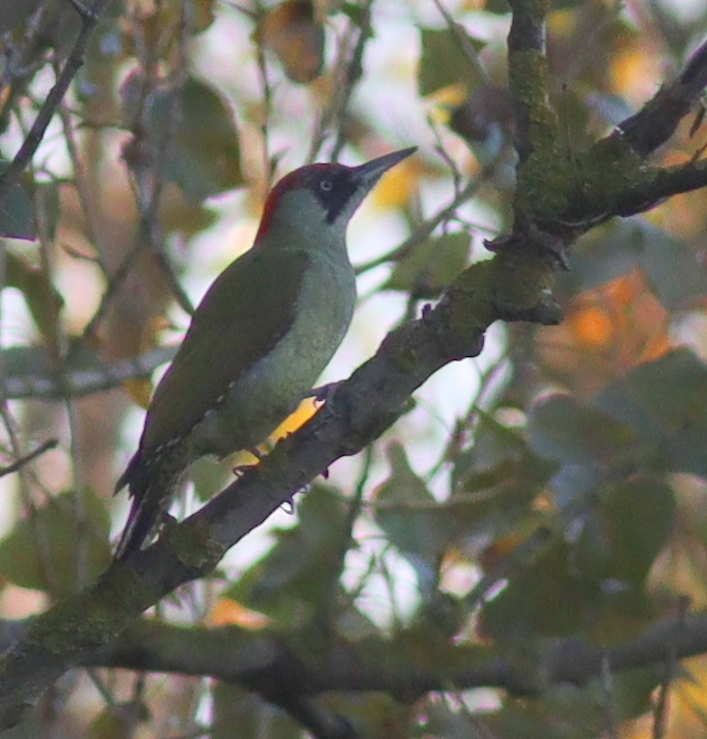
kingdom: Animalia
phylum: Chordata
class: Aves
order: Piciformes
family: Picidae
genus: Picus
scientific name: Picus viridis
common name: European green woodpecker
